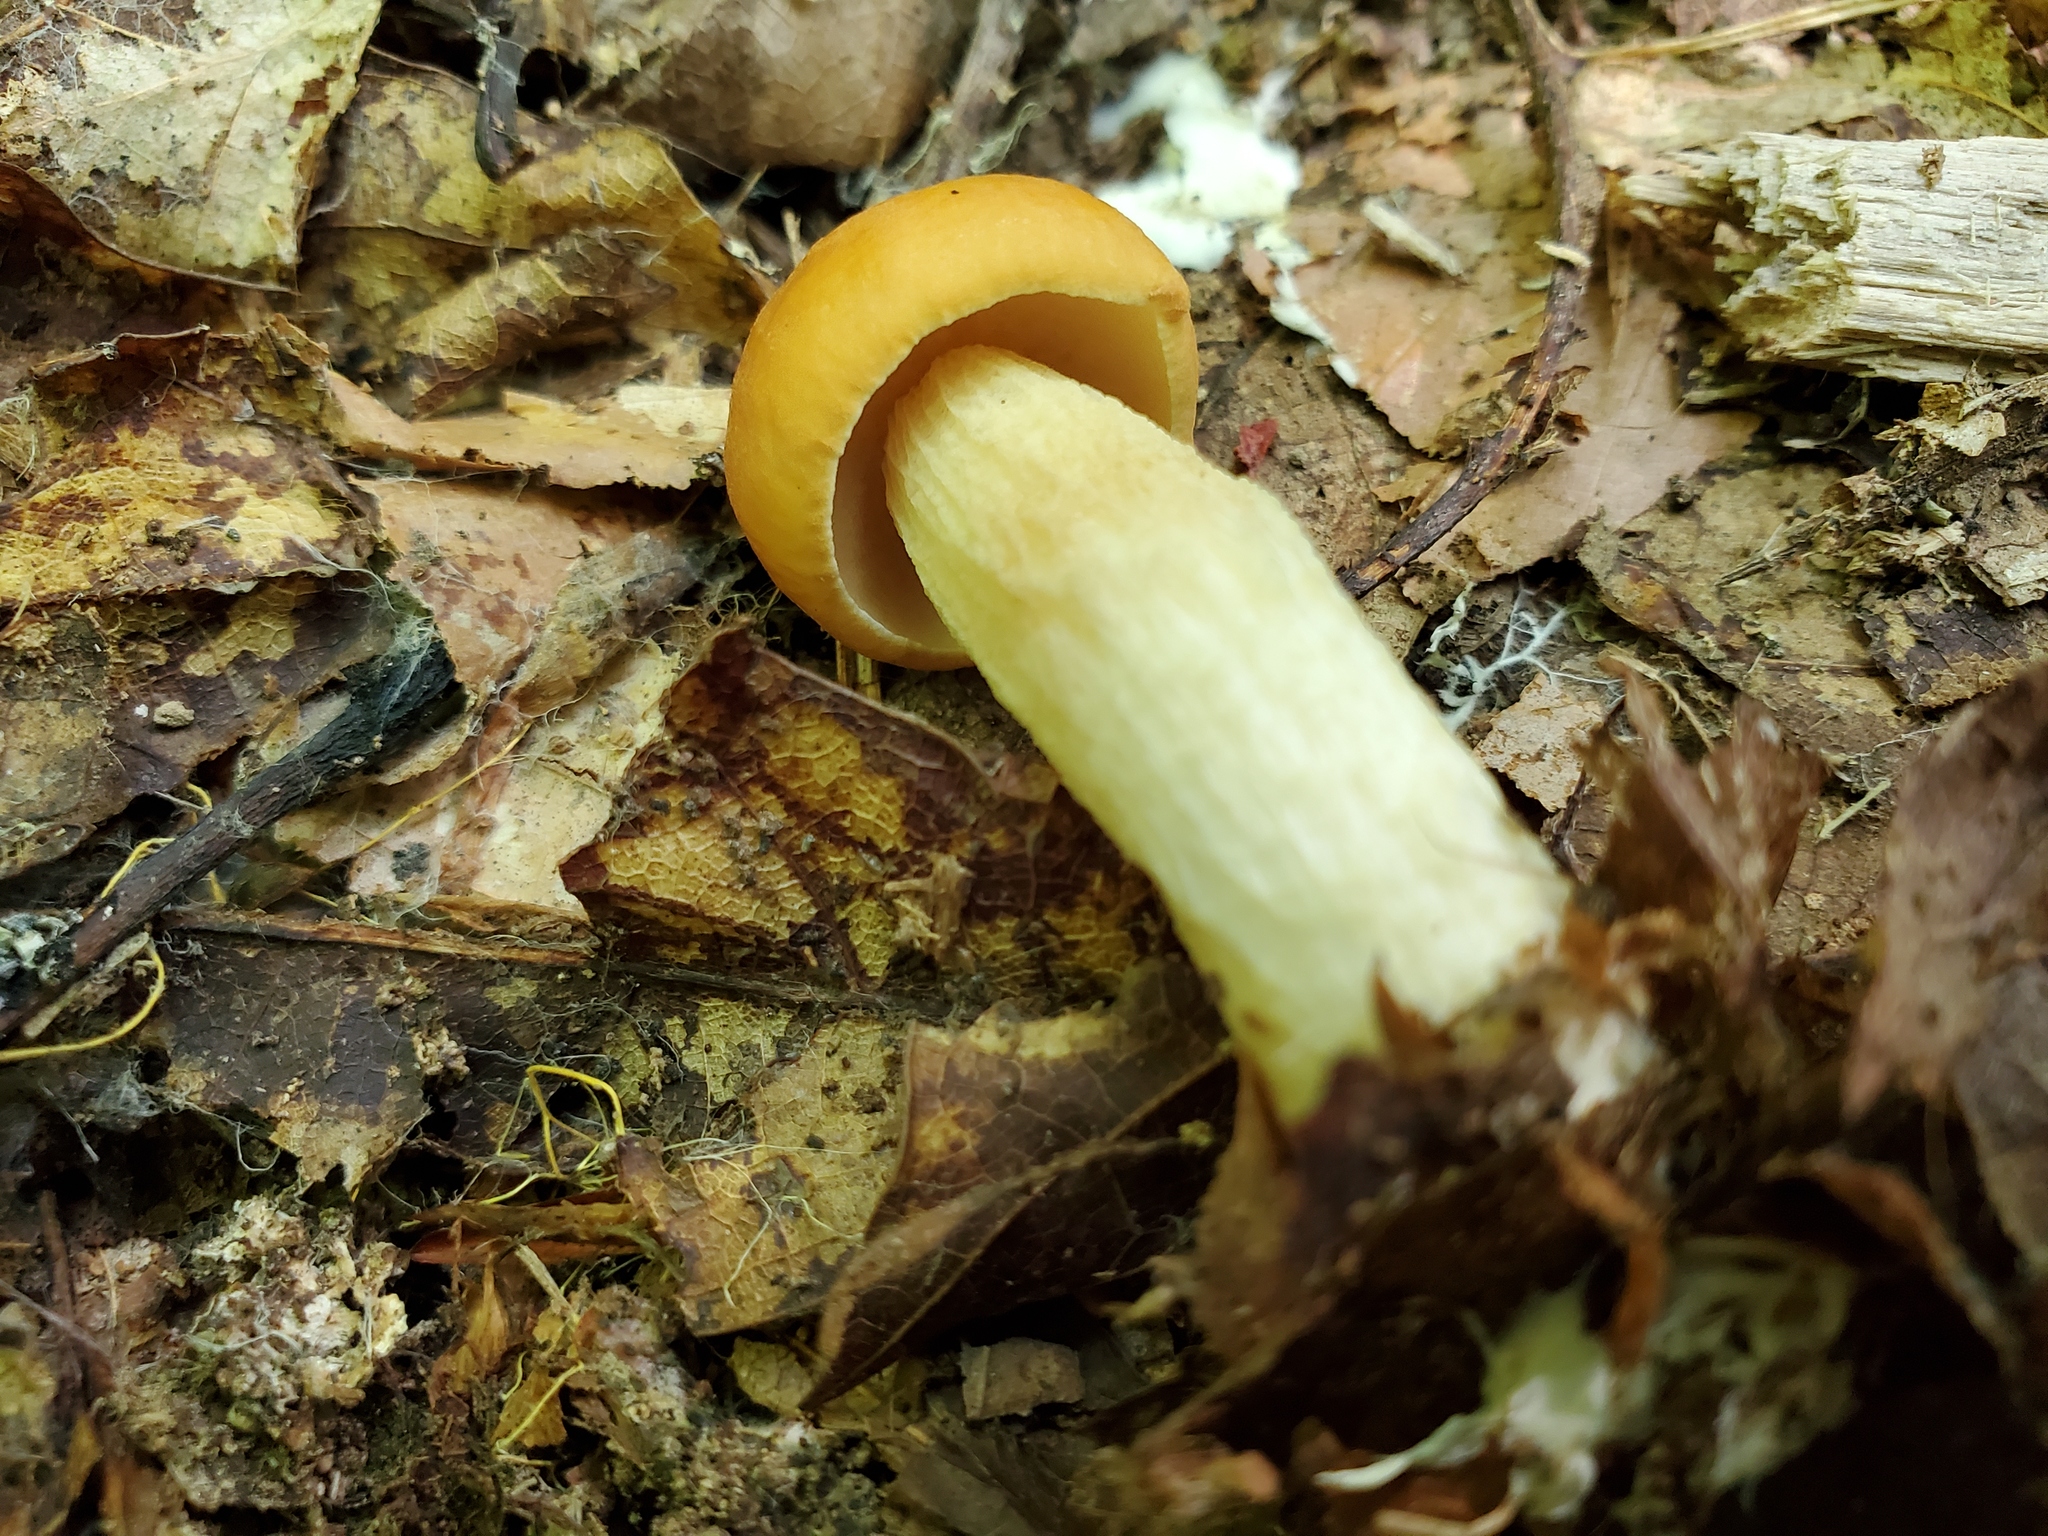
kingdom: Fungi
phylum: Basidiomycota
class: Agaricomycetes
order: Boletales
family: Boletaceae
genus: Leccinum
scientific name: Leccinum longicurvipes
